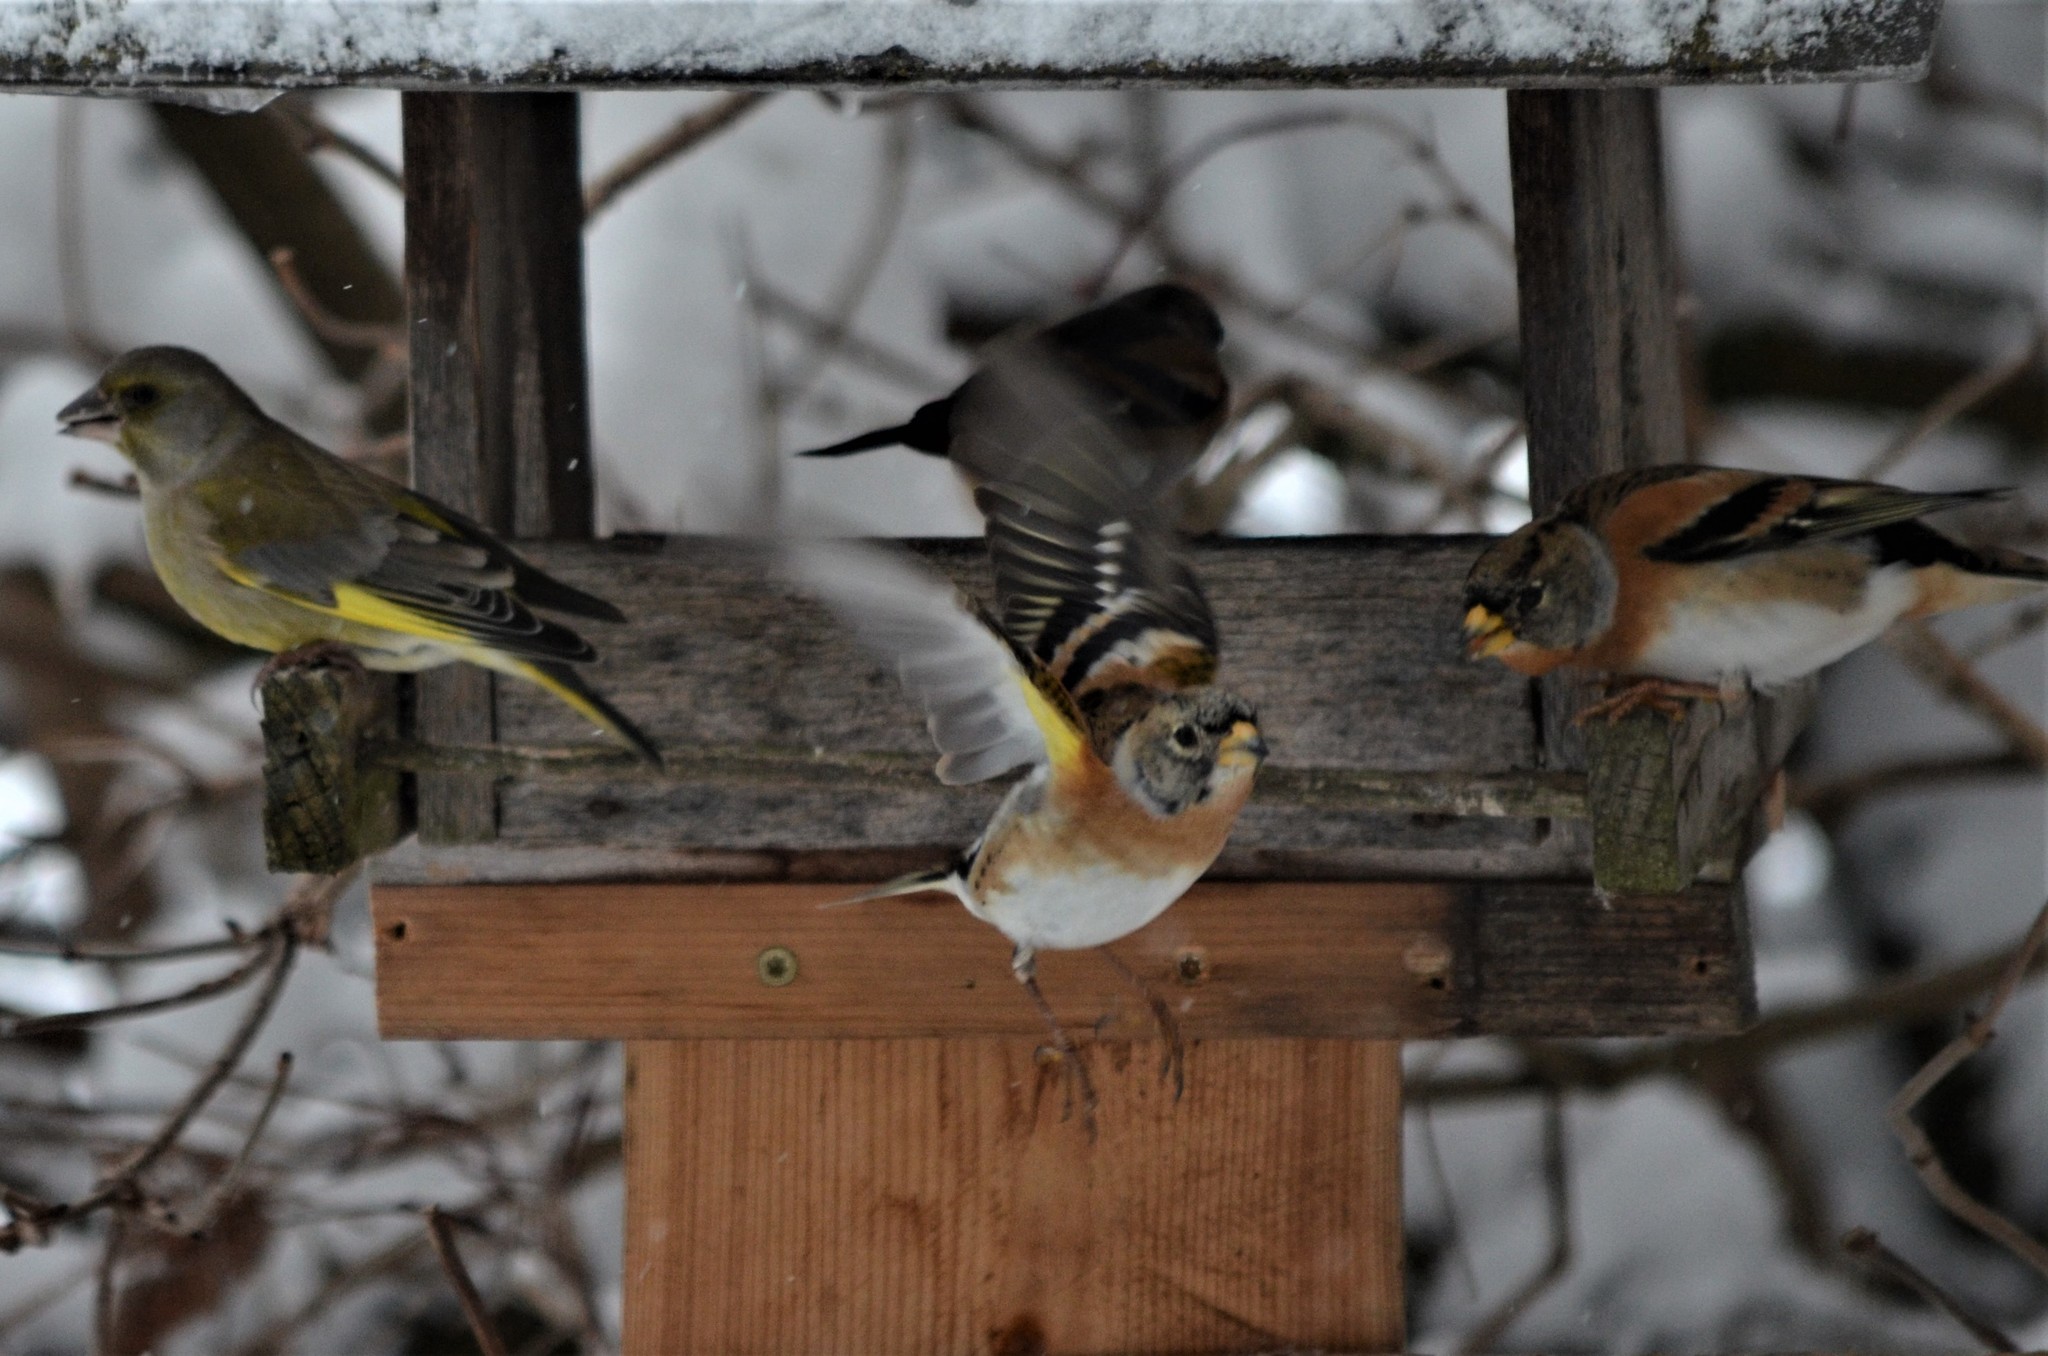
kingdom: Plantae
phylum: Tracheophyta
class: Liliopsida
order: Poales
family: Poaceae
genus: Chloris
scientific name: Chloris chloris
